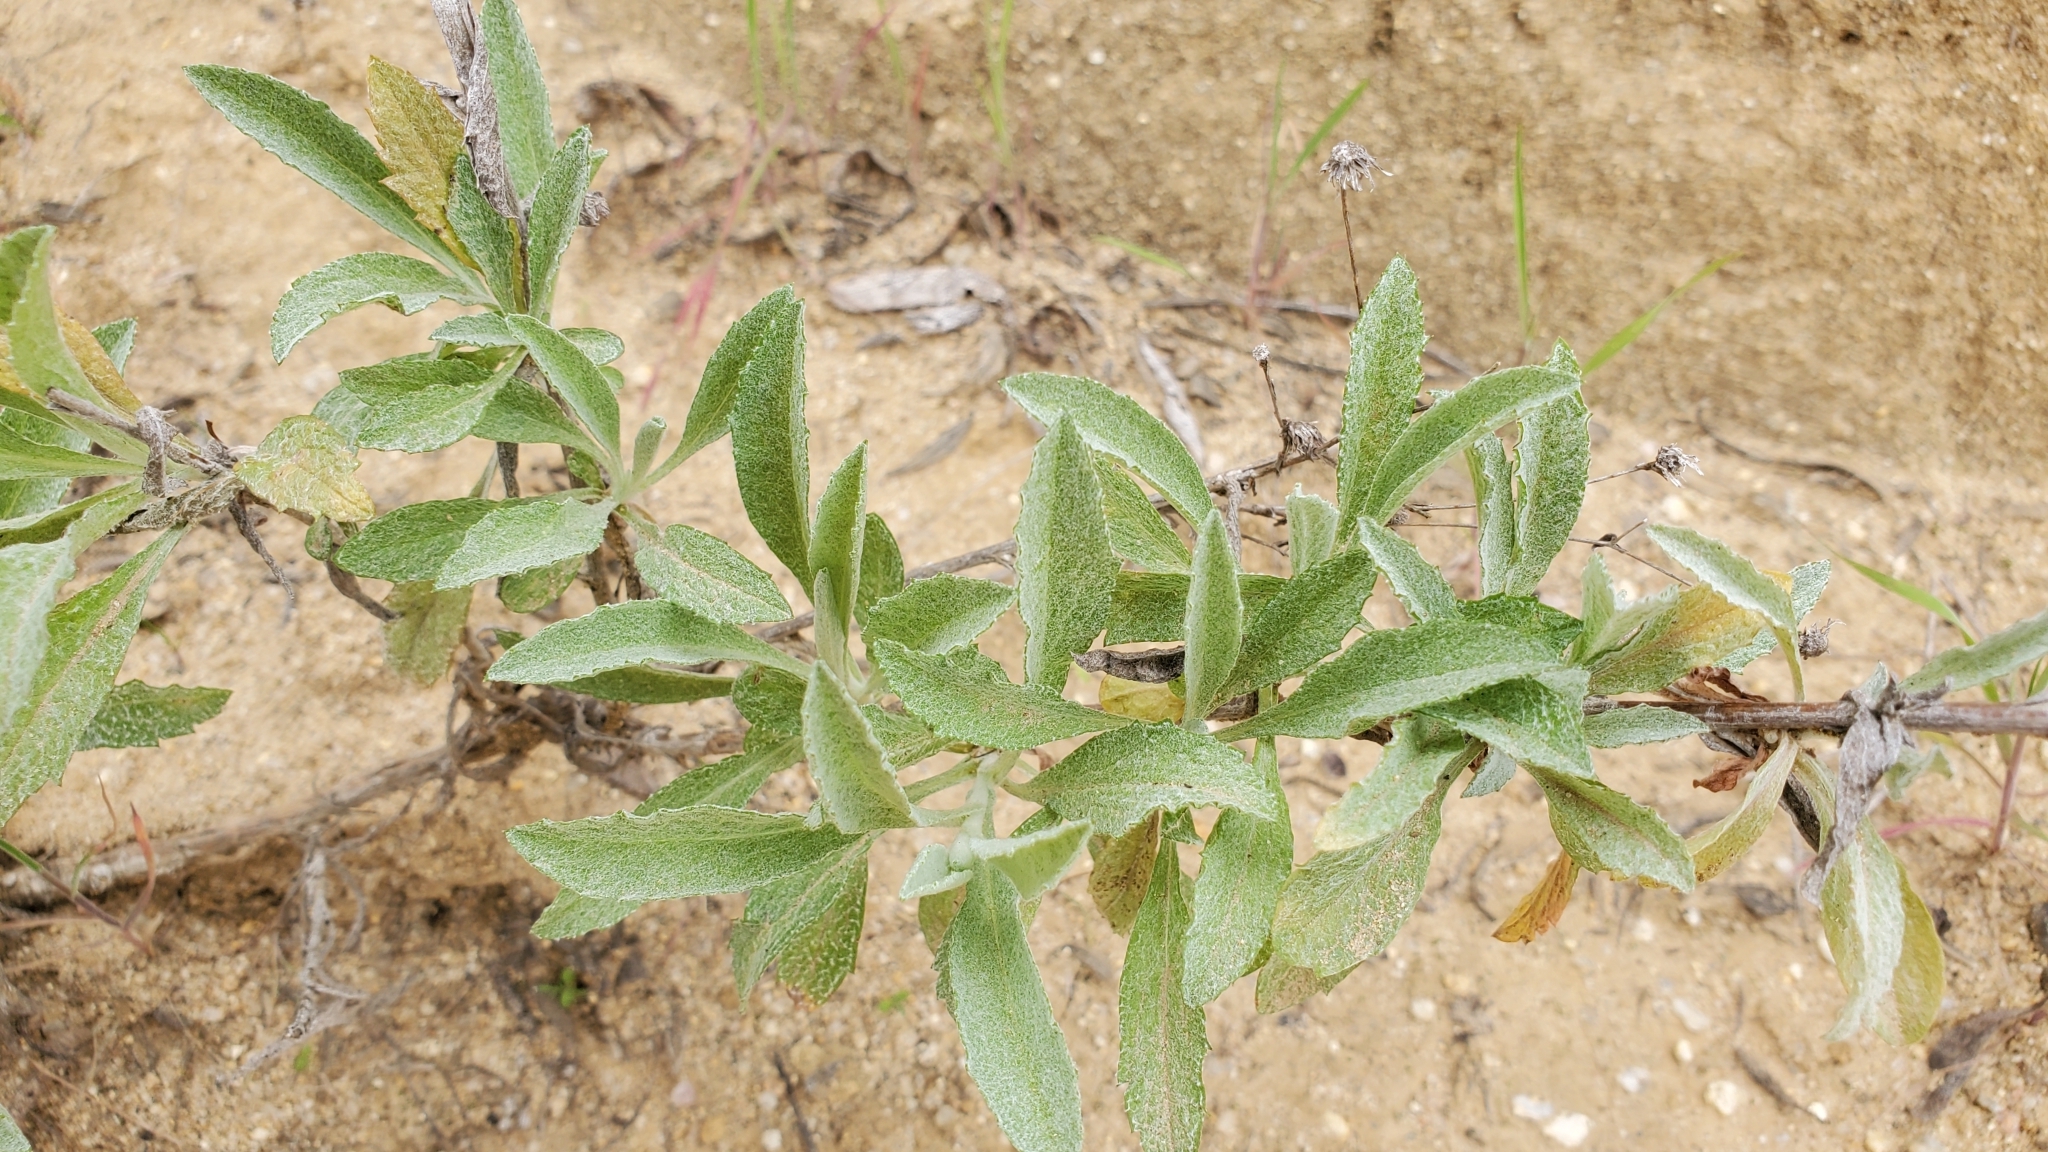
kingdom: Plantae
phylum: Tracheophyta
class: Magnoliopsida
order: Asterales
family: Asteraceae
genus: Corethrogyne
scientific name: Corethrogyne filaginifolia
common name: Sand-aster
